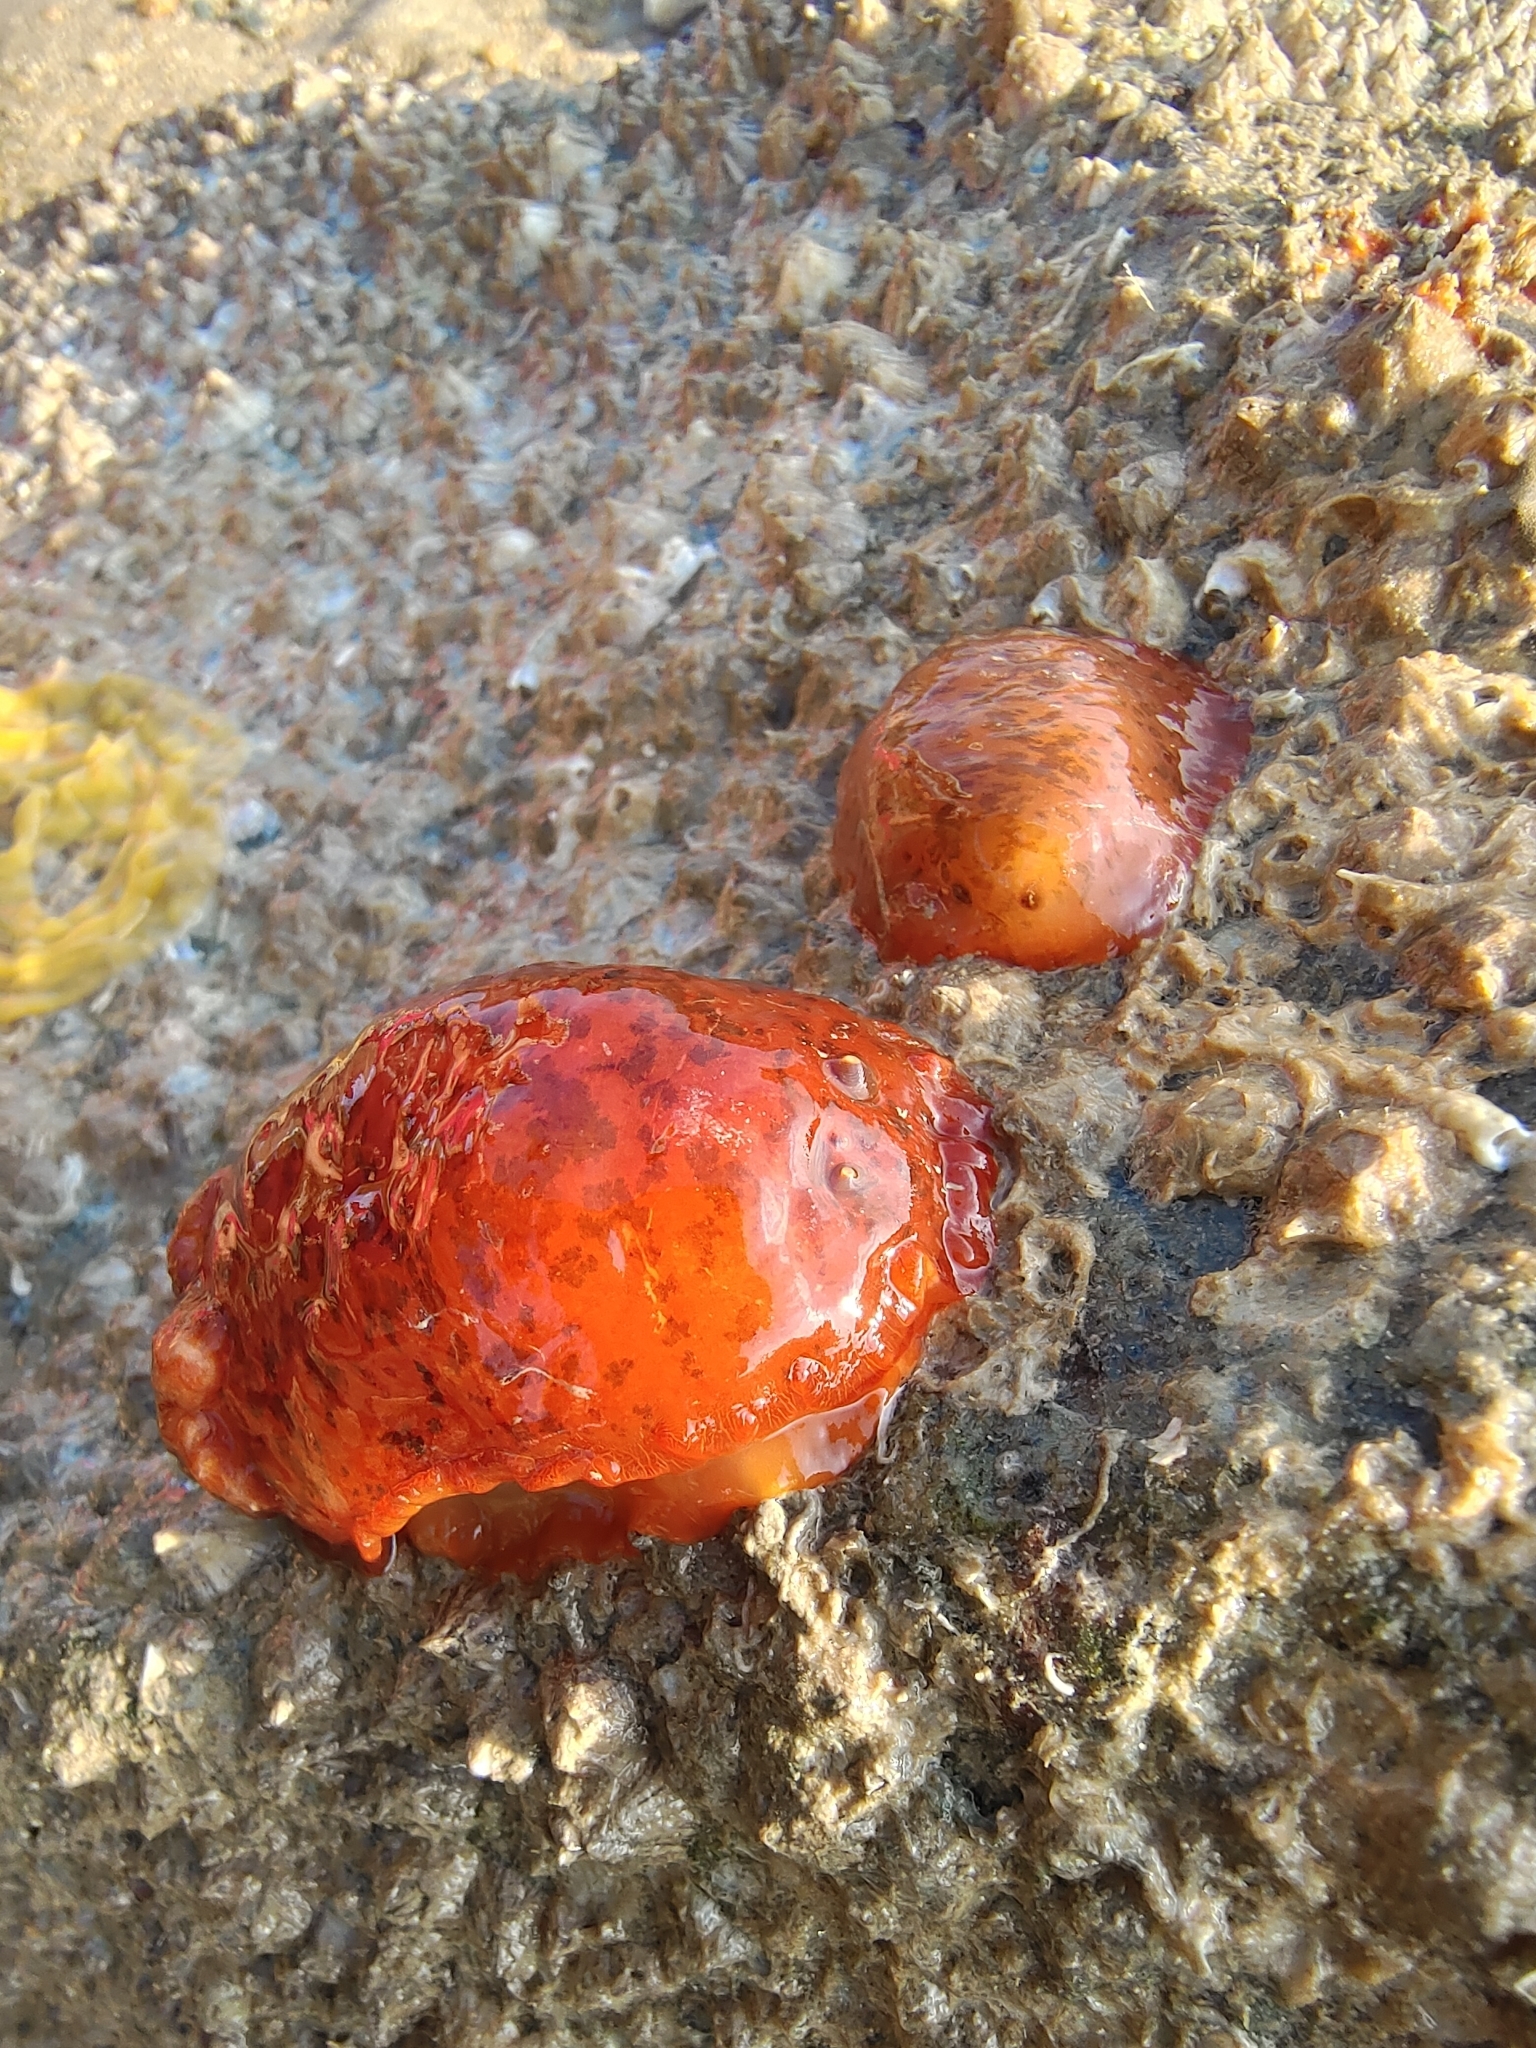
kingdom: Animalia
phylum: Mollusca
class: Gastropoda
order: Nudibranchia
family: Dendrodorididae
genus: Dendrodoris
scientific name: Dendrodoris fumata
